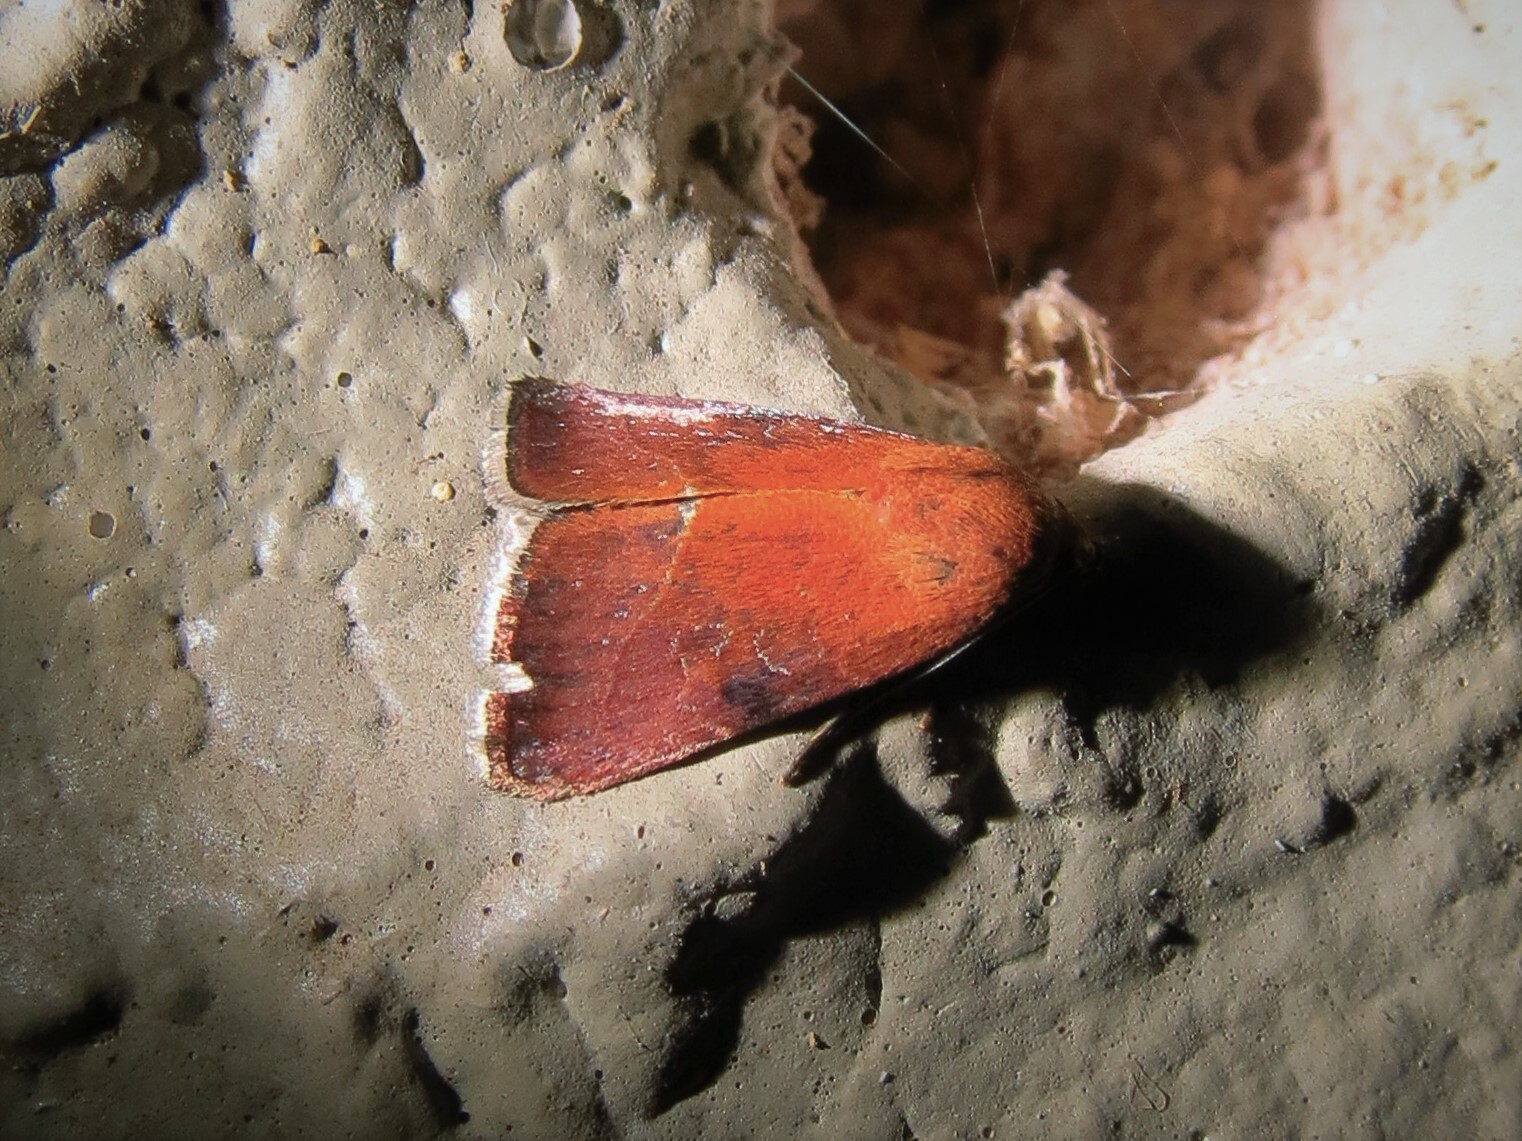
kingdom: Animalia
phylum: Arthropoda
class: Insecta
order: Lepidoptera
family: Noctuidae
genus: Galgula
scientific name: Galgula partita
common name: Wedgeling
